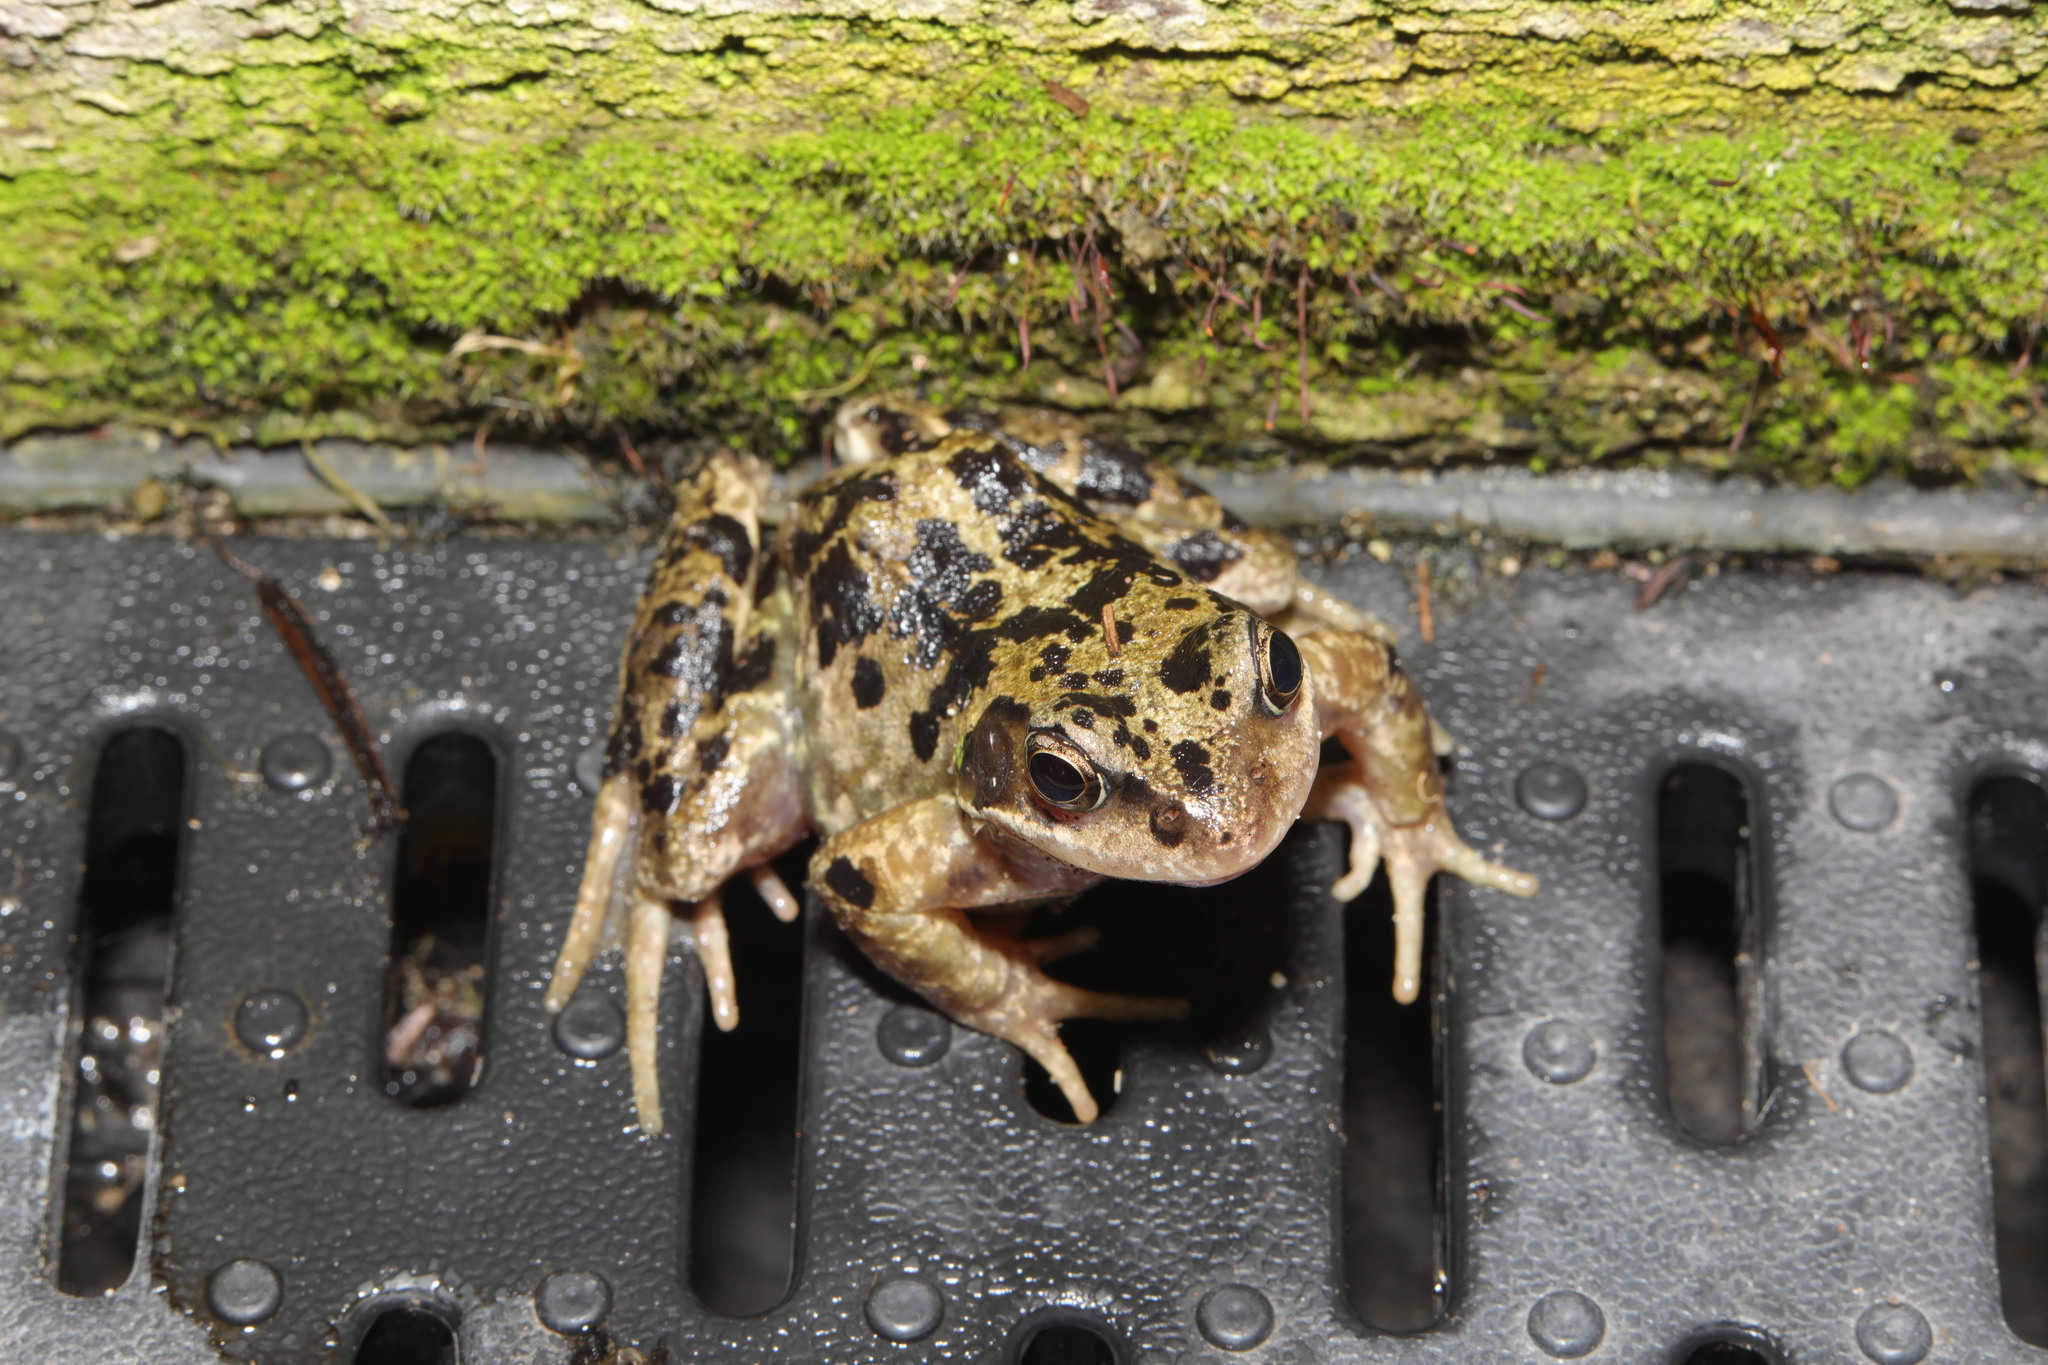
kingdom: Animalia
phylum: Chordata
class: Amphibia
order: Anura
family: Ranidae
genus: Rana
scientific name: Rana temporaria
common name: Common frog
